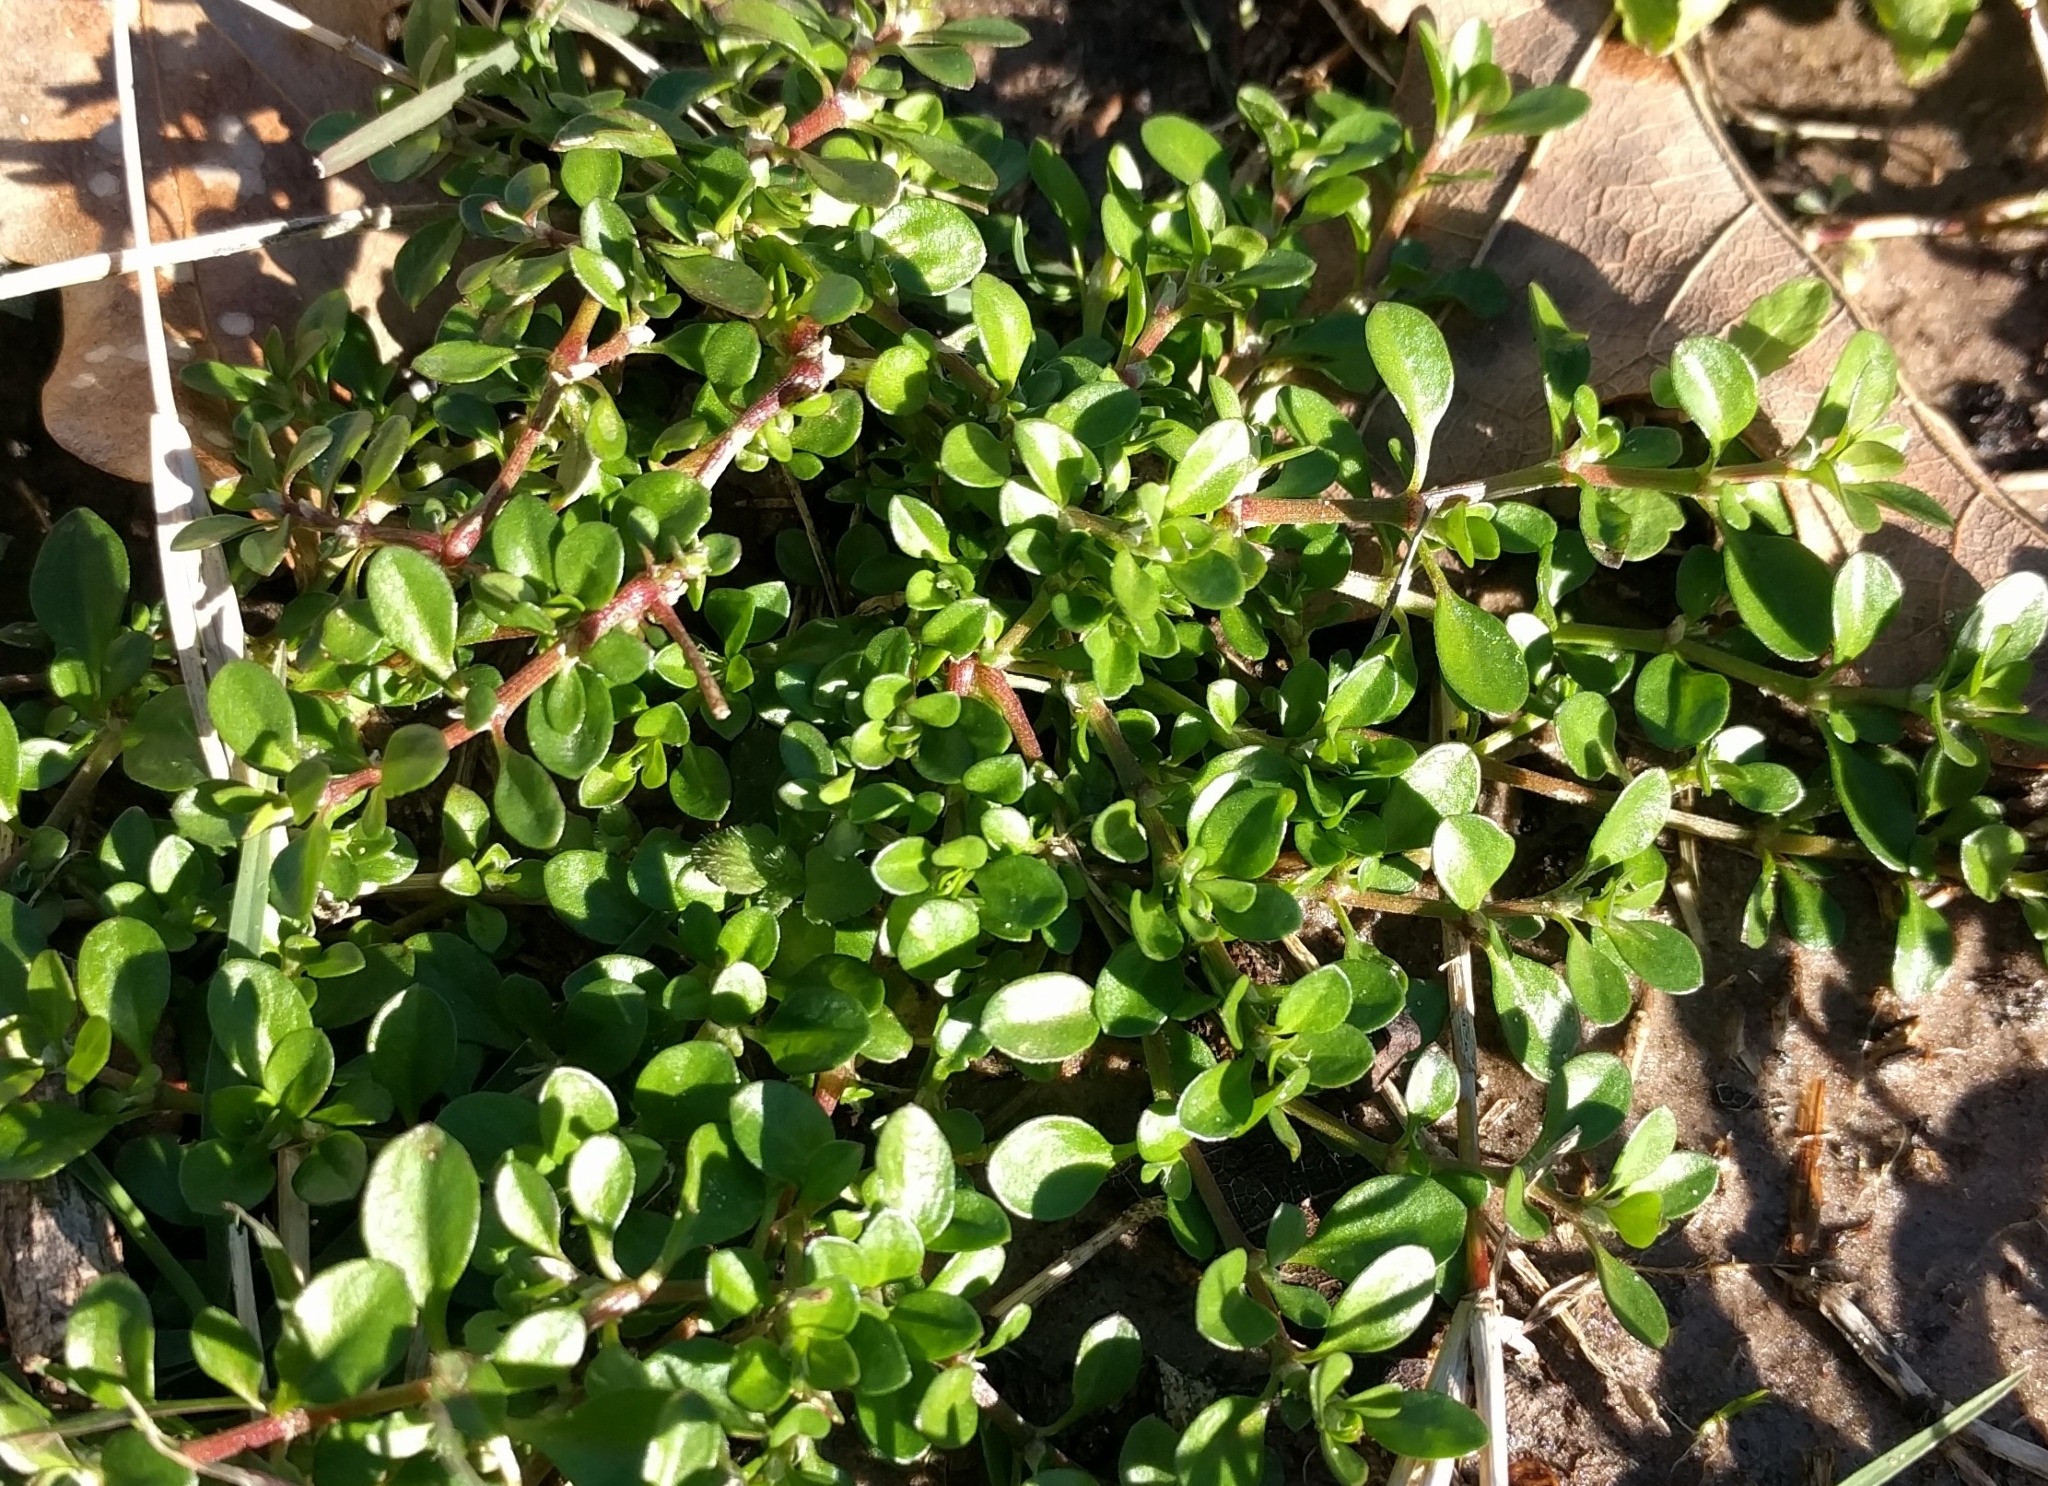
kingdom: Plantae
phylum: Tracheophyta
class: Magnoliopsida
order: Caryophyllales
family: Portulacaceae
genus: Portulaca
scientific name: Portulaca oleracea
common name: Common purslane
